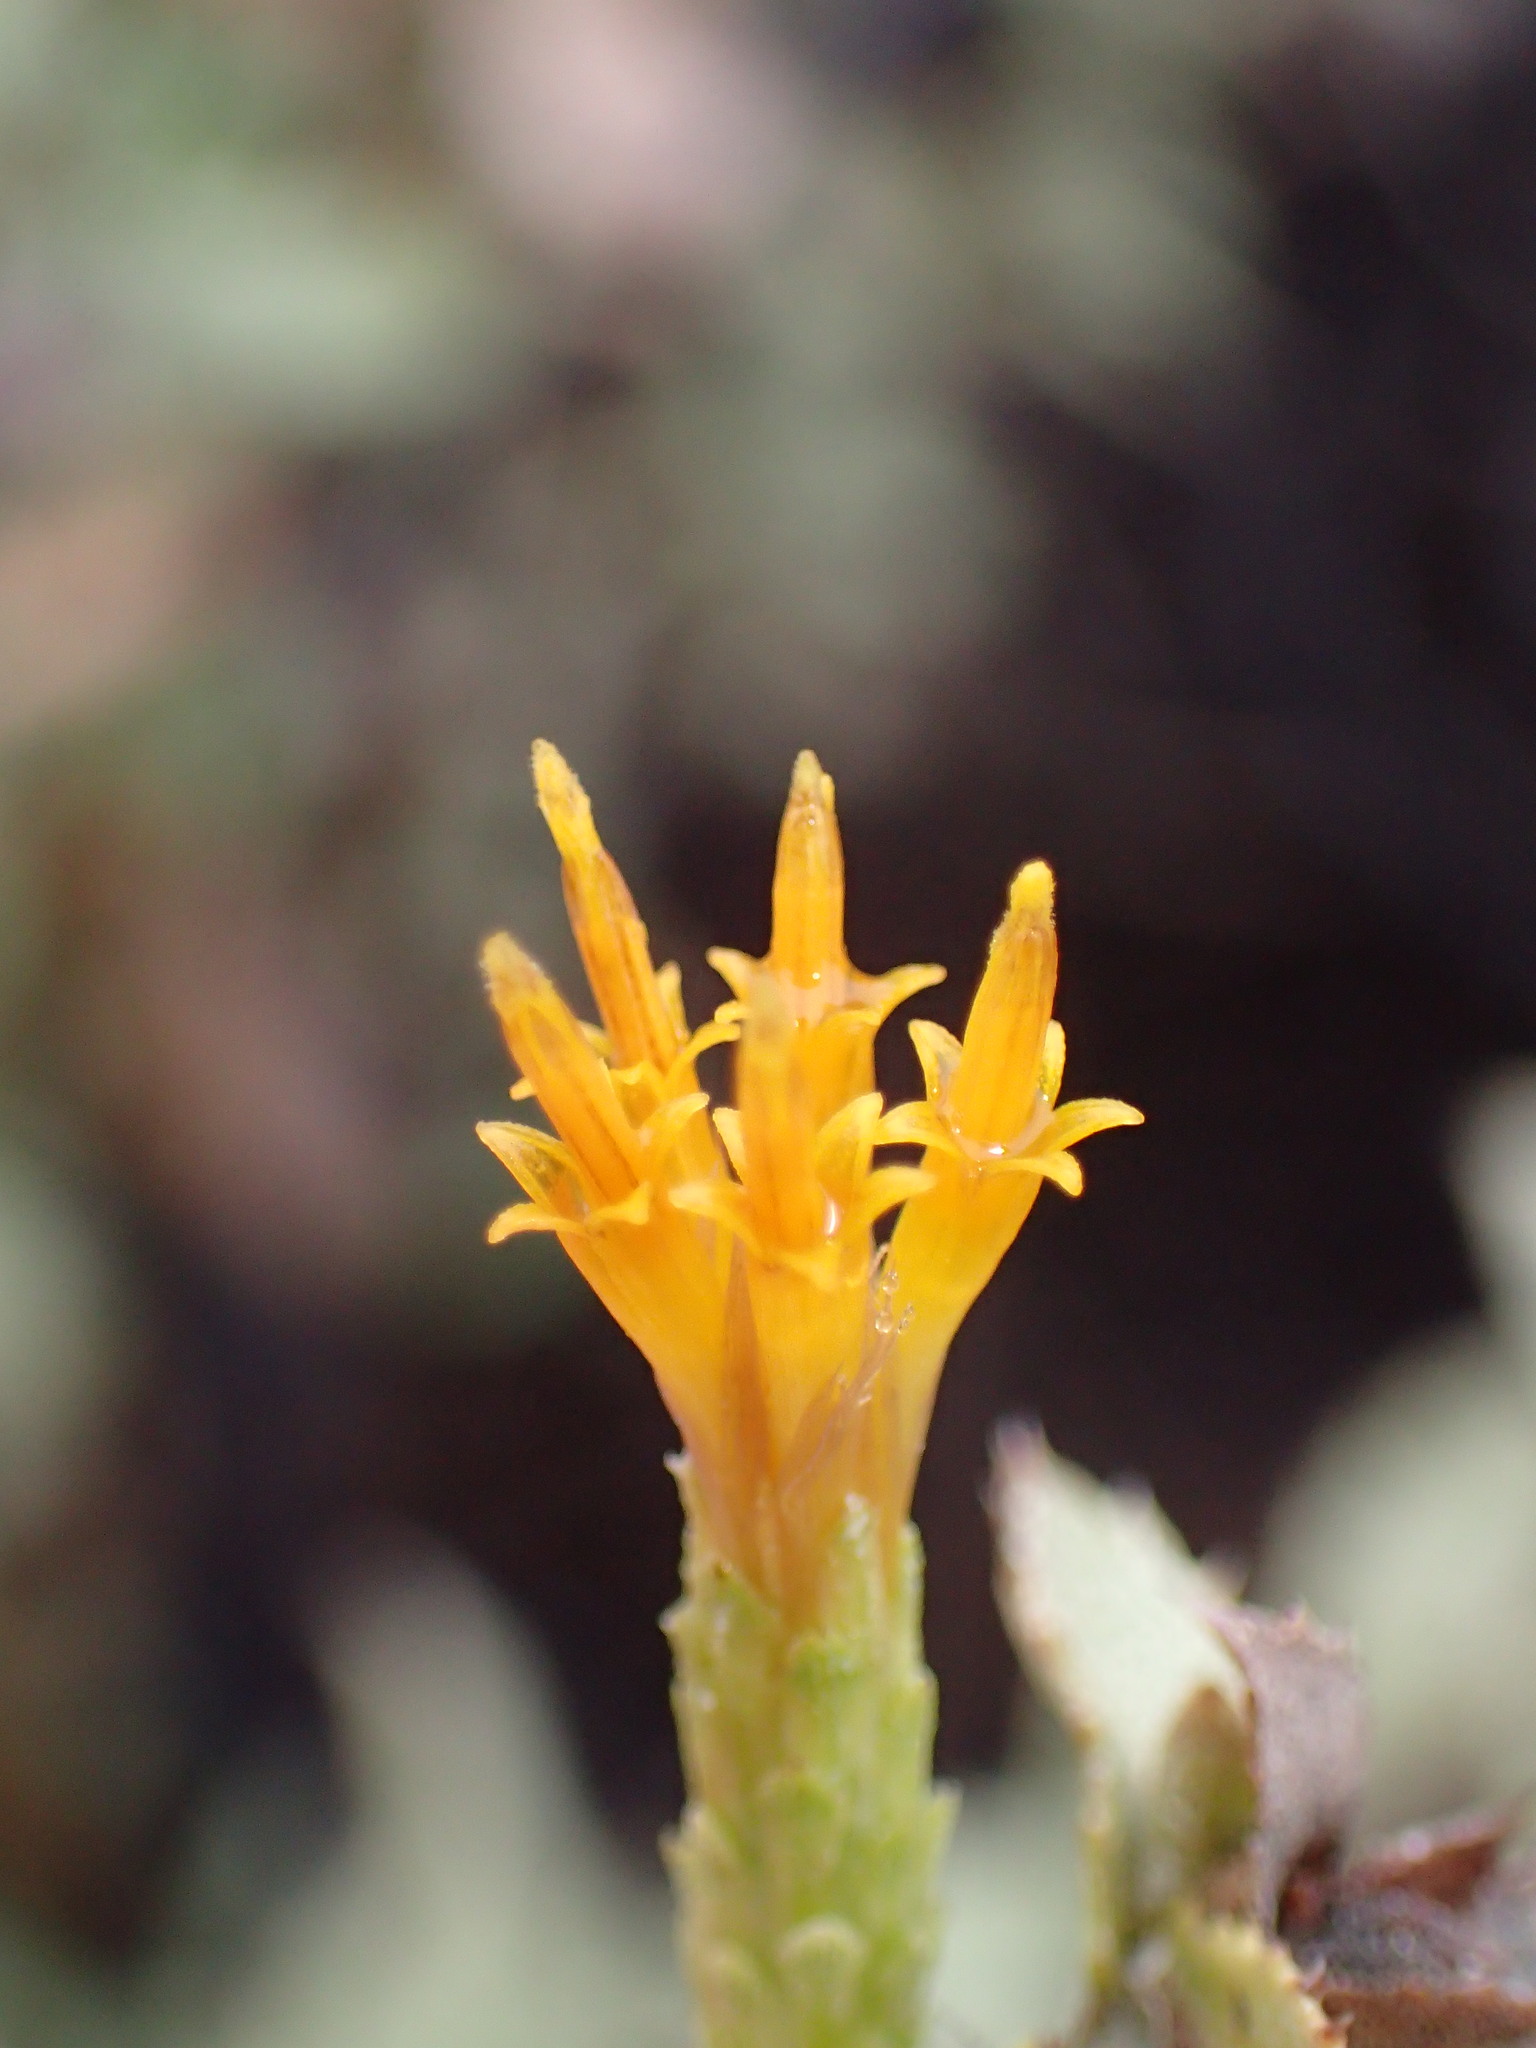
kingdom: Plantae
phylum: Tracheophyta
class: Magnoliopsida
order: Asterales
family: Asteraceae
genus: Hazardia
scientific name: Hazardia squarrosa
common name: Saw-tooth goldenbush
